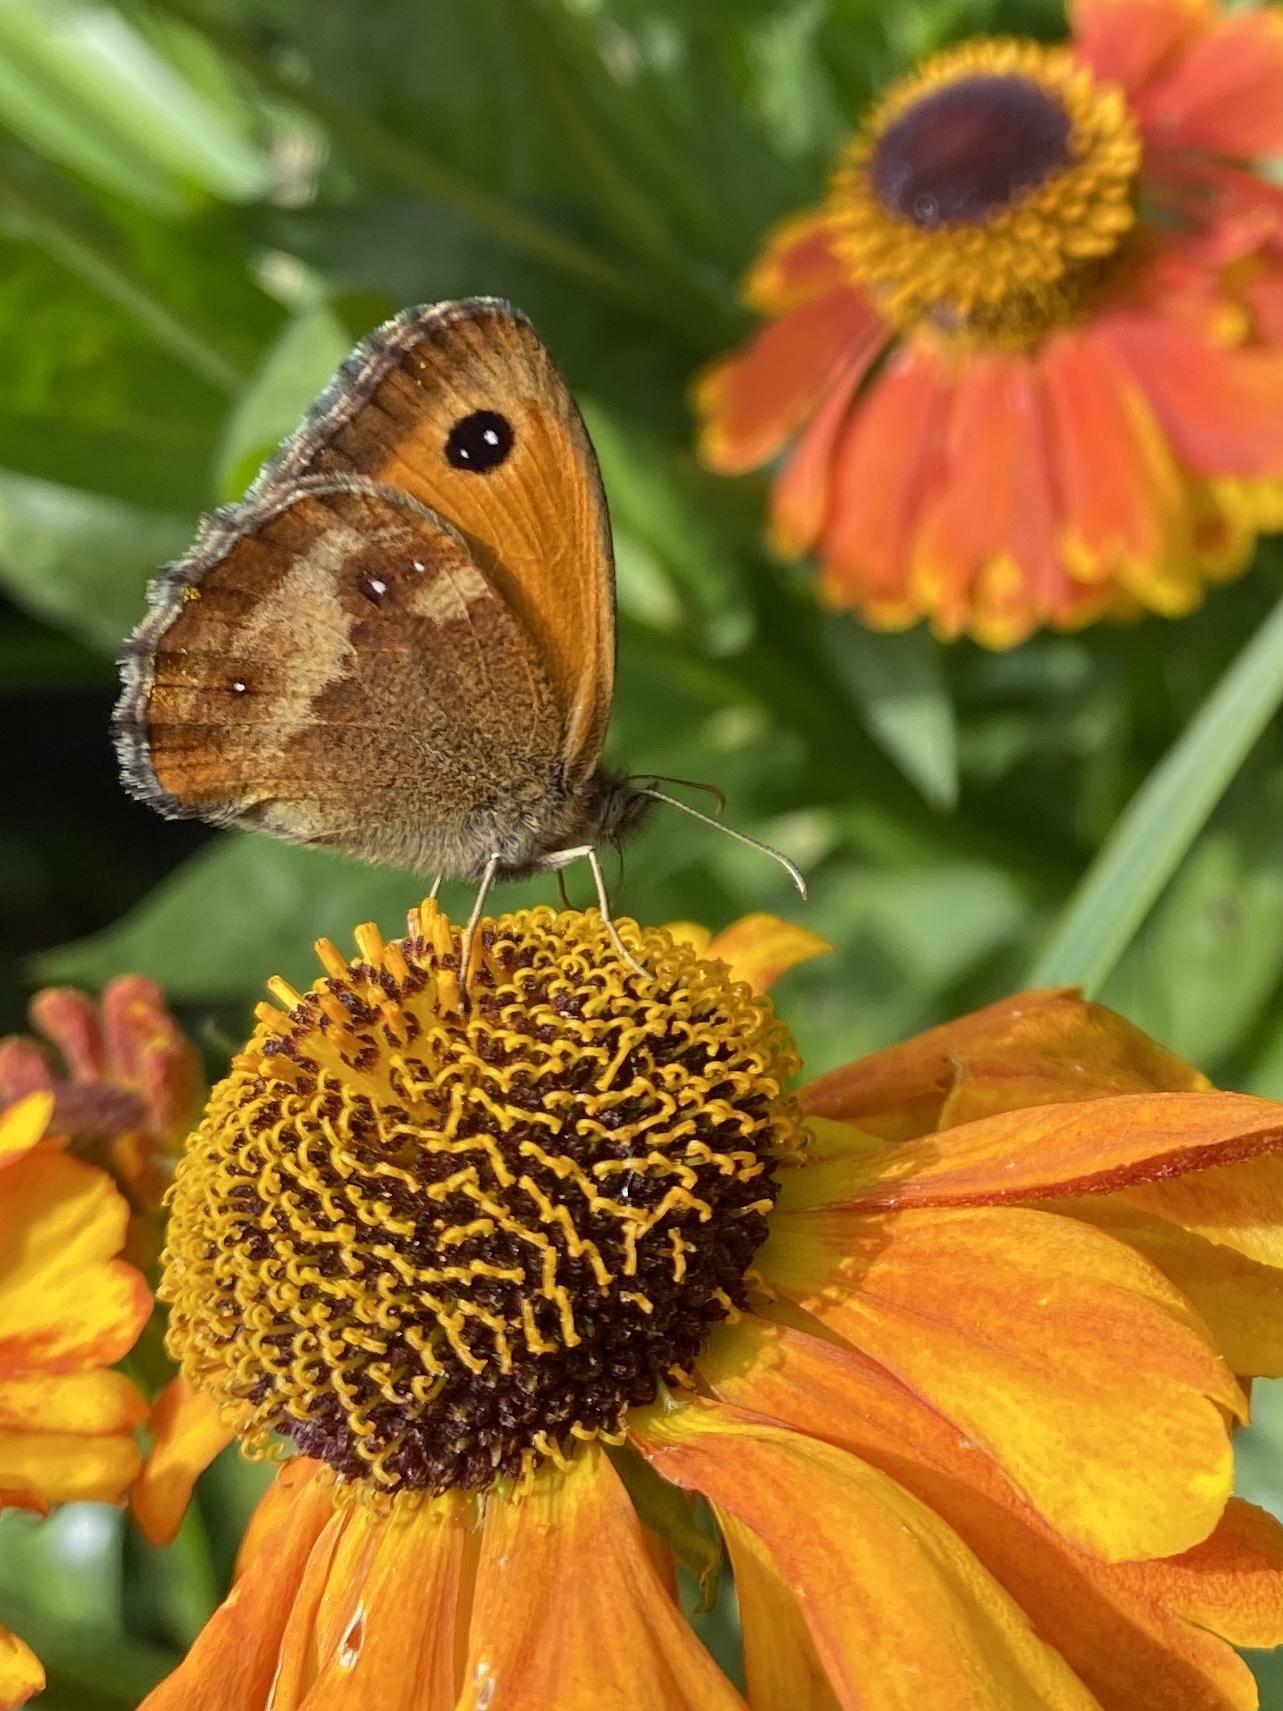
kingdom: Animalia
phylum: Arthropoda
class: Insecta
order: Lepidoptera
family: Nymphalidae
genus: Pyronia
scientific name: Pyronia tithonus
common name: Gatekeeper
